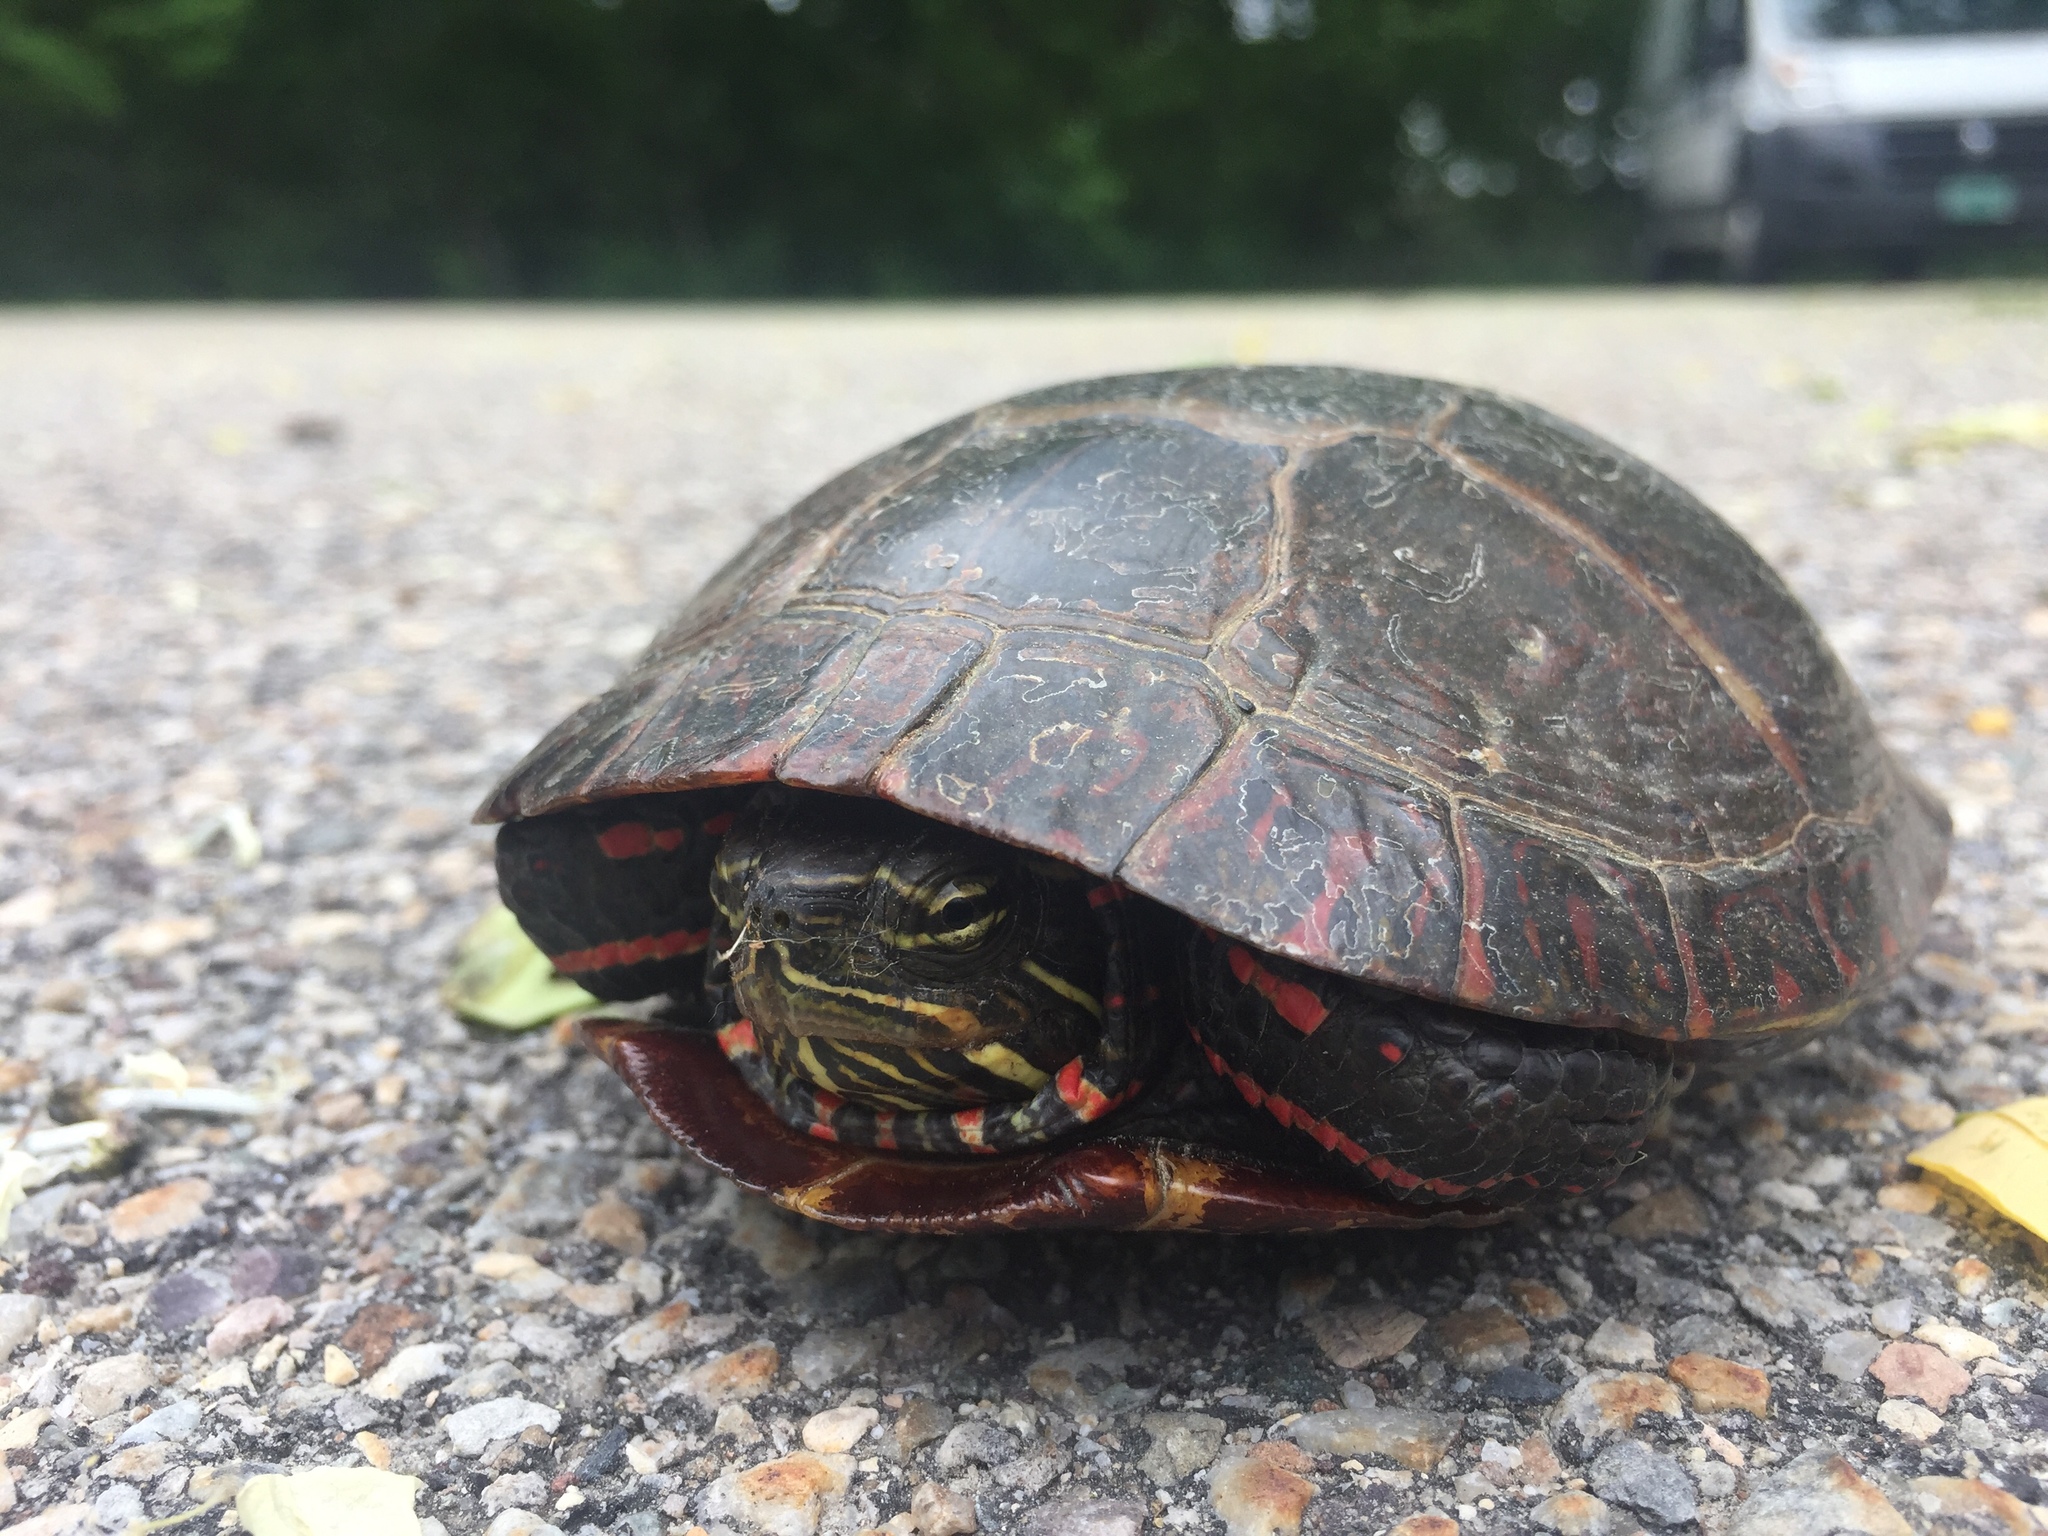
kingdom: Animalia
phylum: Chordata
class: Testudines
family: Emydidae
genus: Chrysemys
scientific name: Chrysemys picta
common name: Painted turtle
